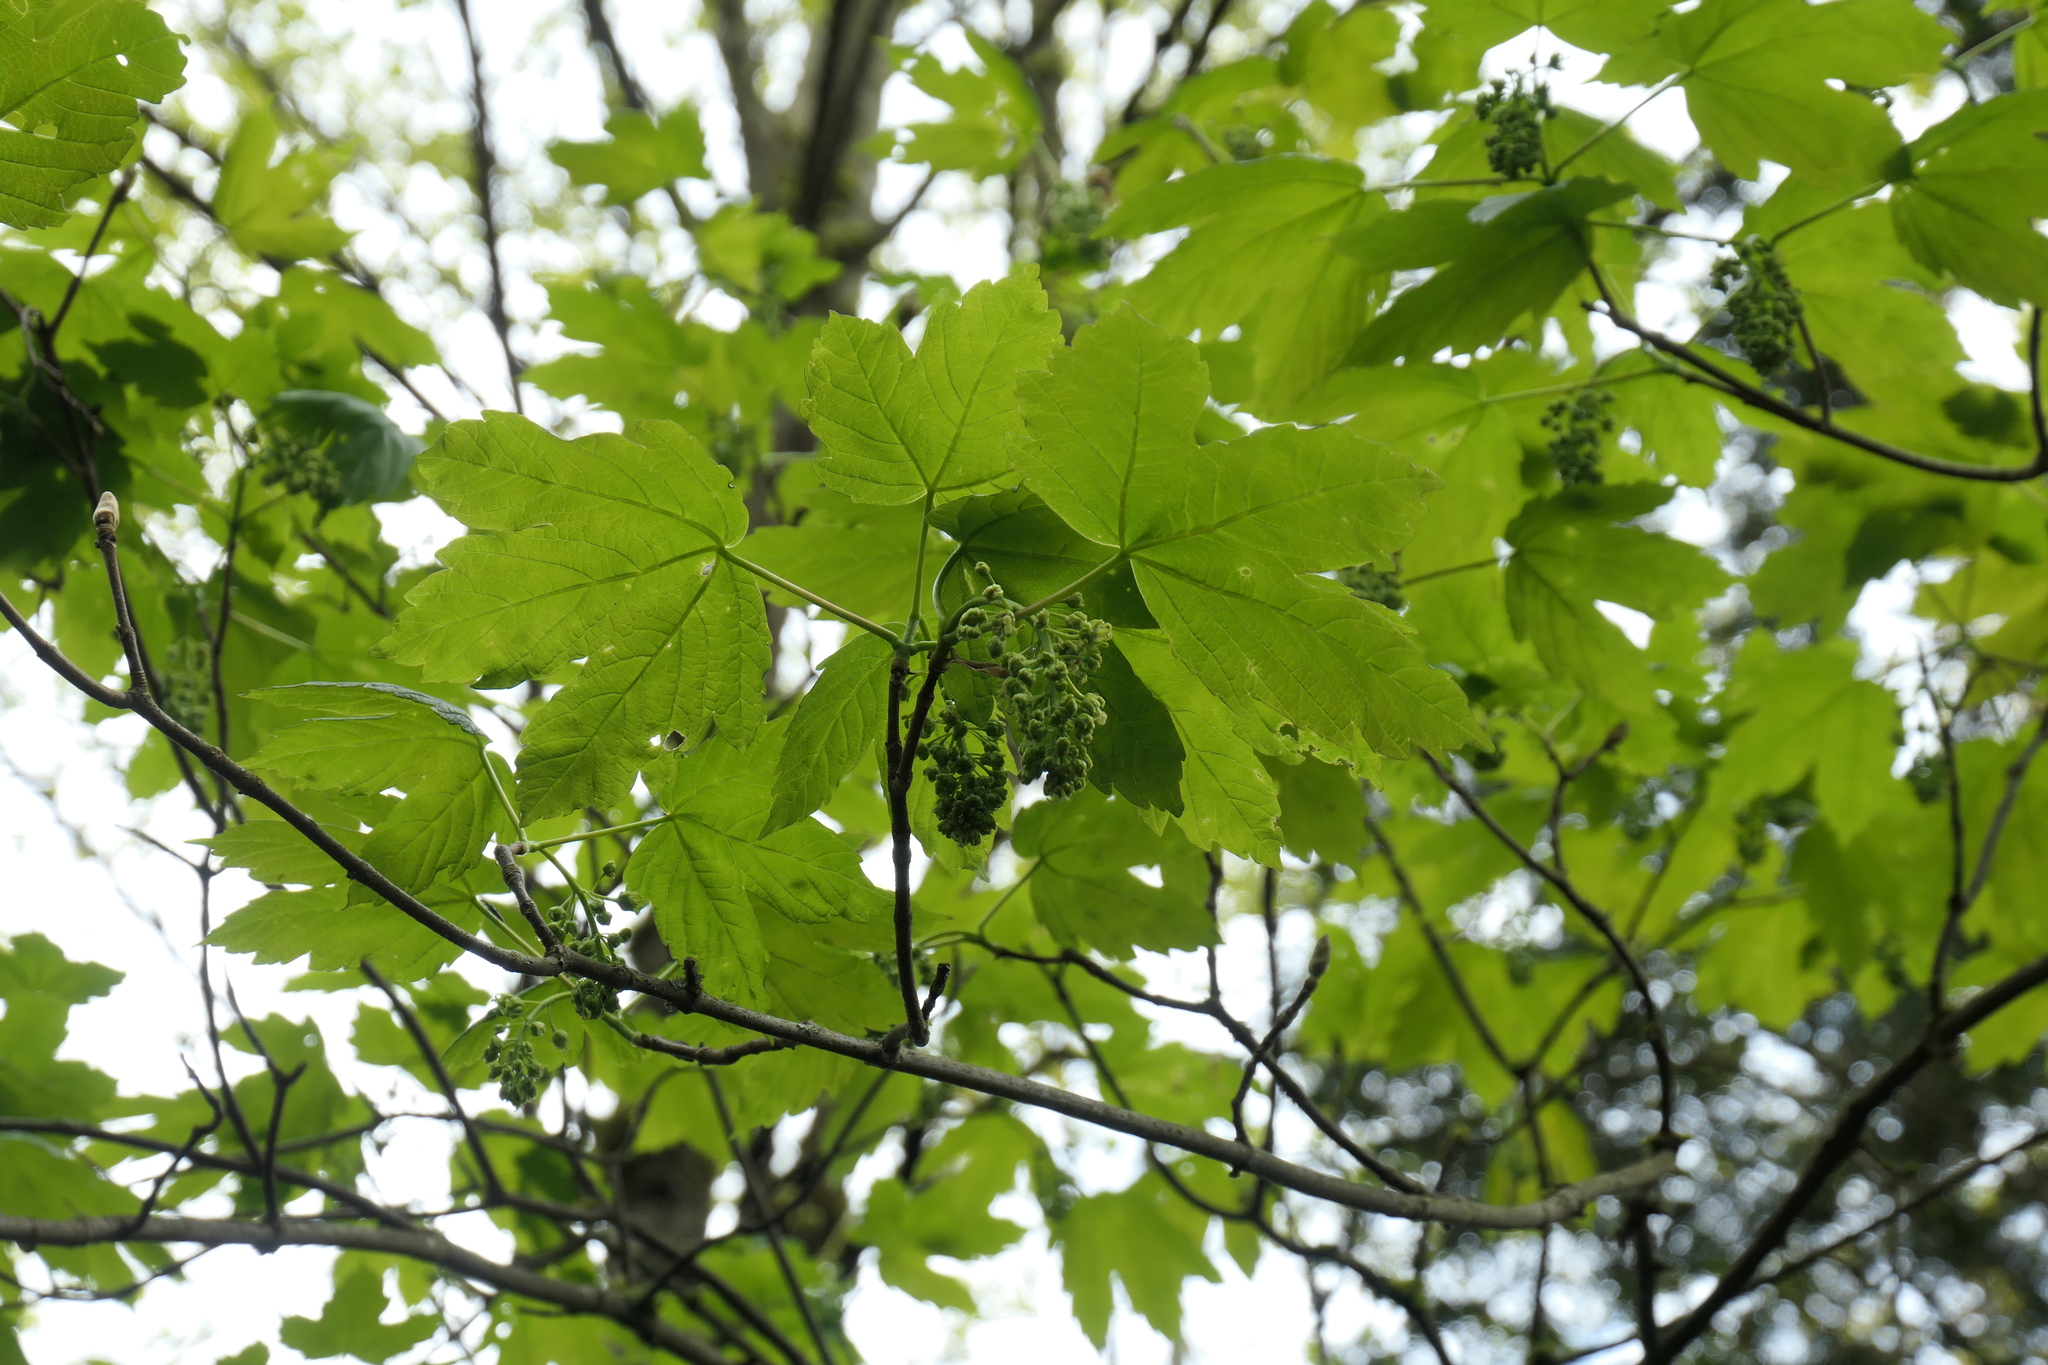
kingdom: Plantae
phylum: Tracheophyta
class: Magnoliopsida
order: Sapindales
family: Sapindaceae
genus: Acer
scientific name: Acer pseudoplatanus
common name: Sycamore
